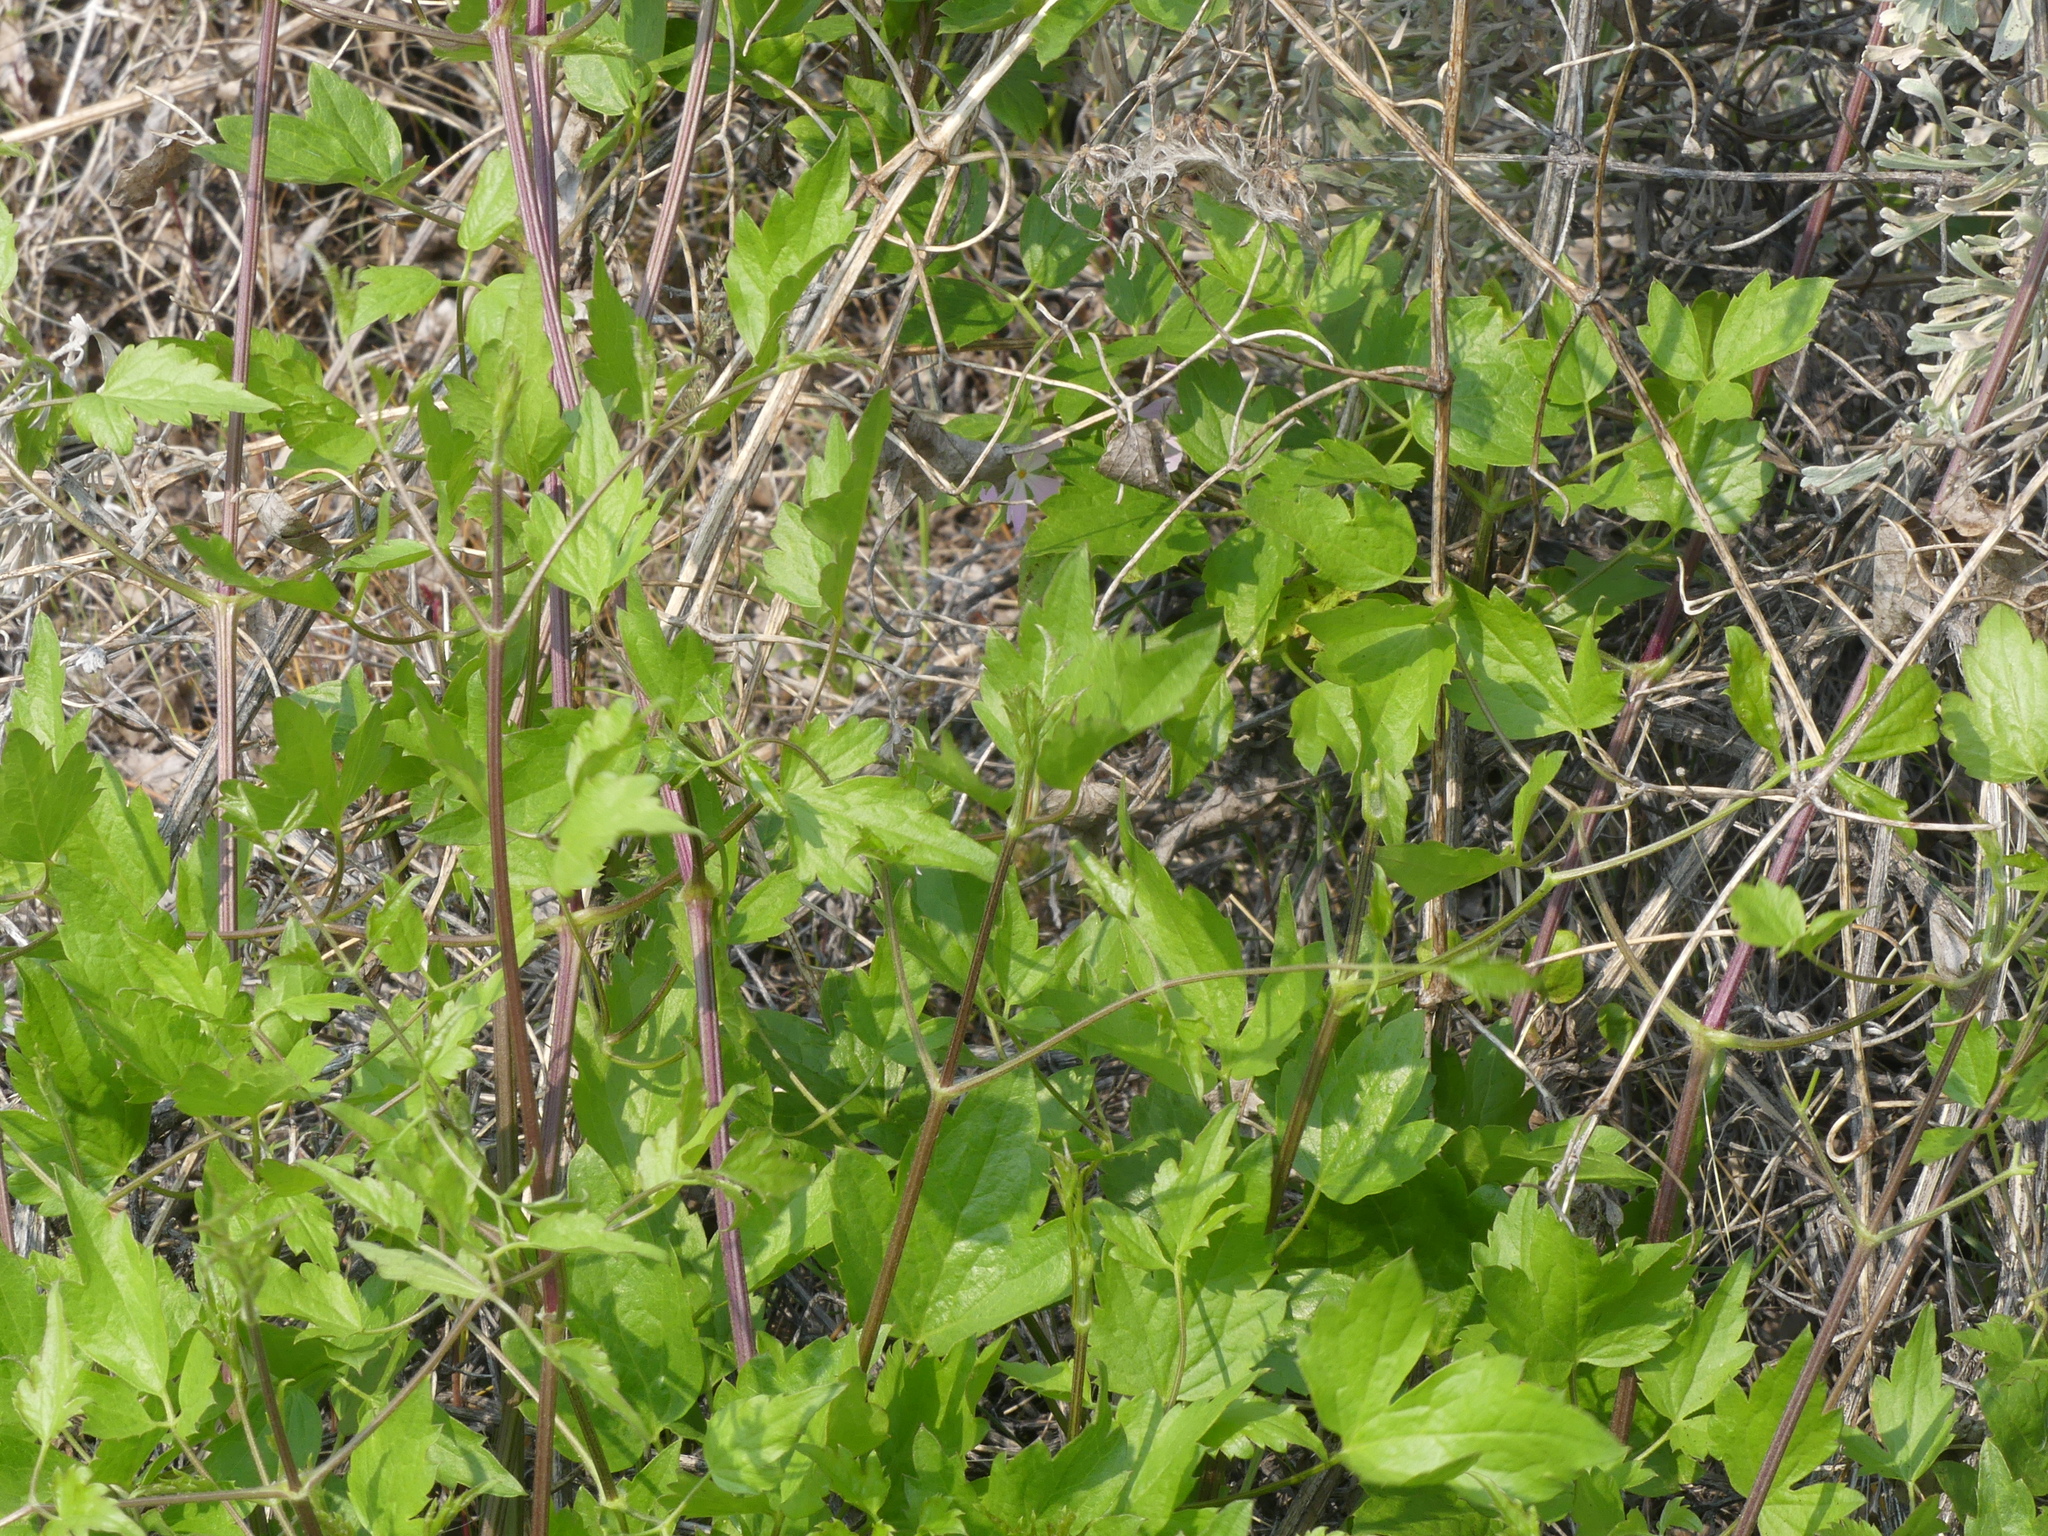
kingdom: Plantae
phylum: Tracheophyta
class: Magnoliopsida
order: Ranunculales
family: Ranunculaceae
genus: Clematis
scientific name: Clematis ligusticifolia
